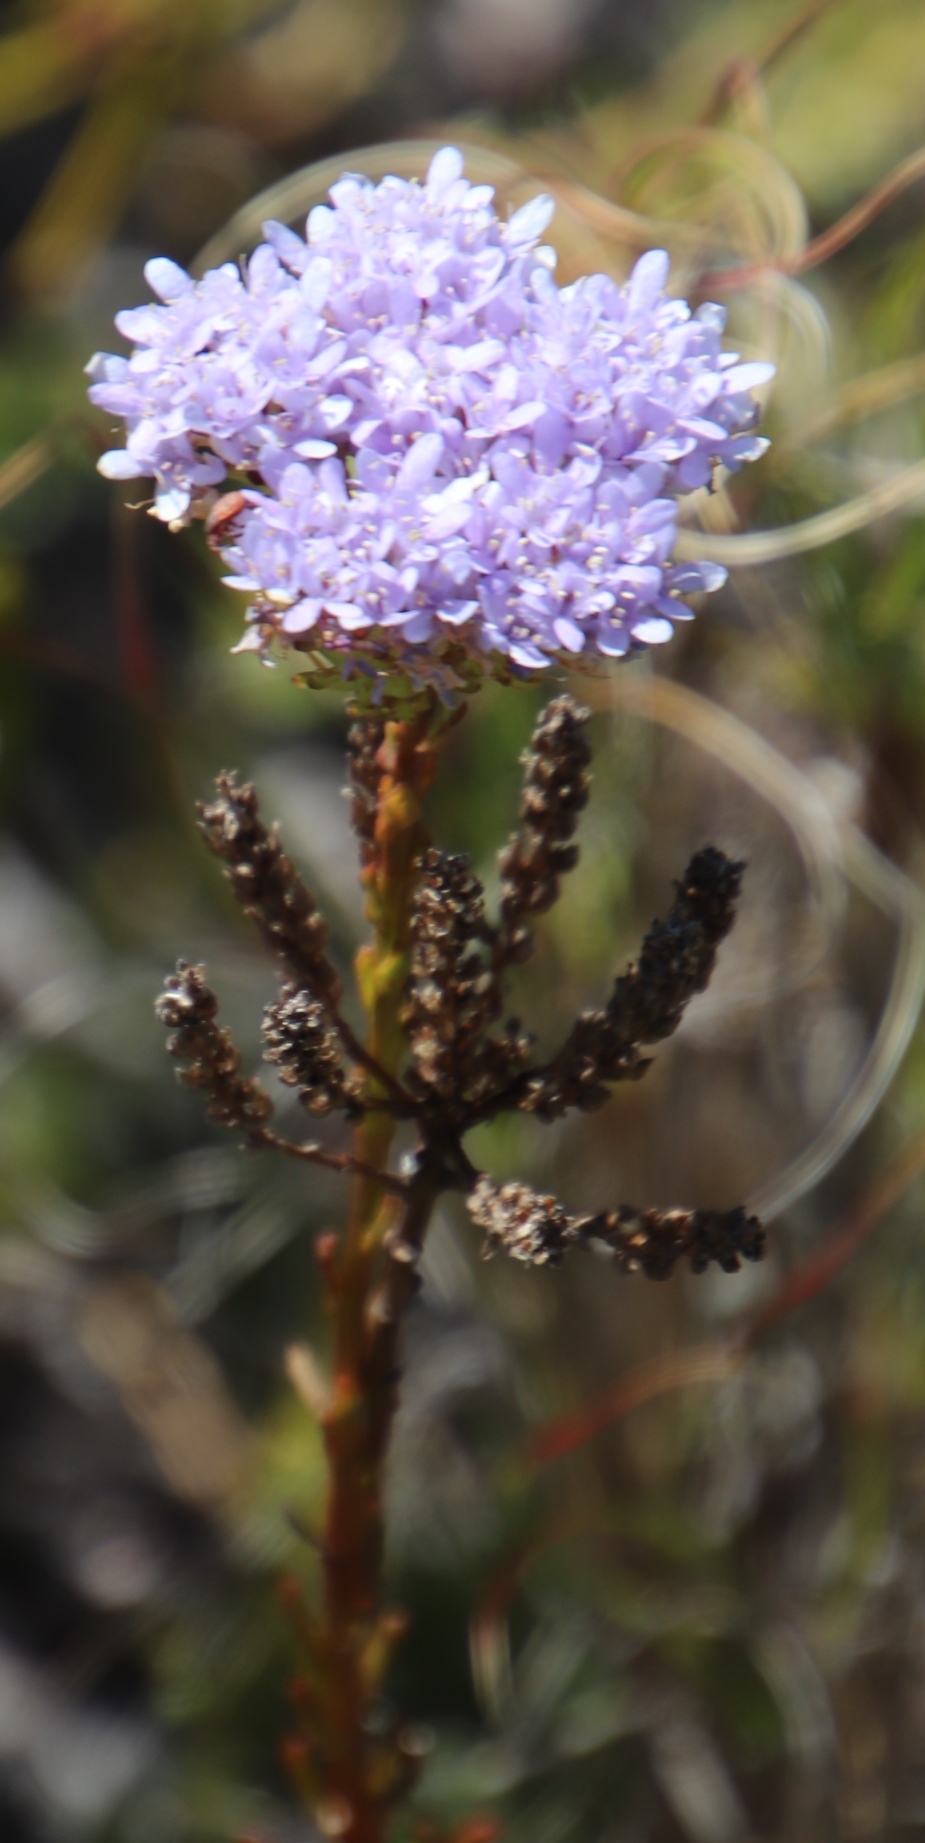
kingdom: Plantae
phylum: Tracheophyta
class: Magnoliopsida
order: Lamiales
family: Scrophulariaceae
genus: Pseudoselago
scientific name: Pseudoselago spuria
